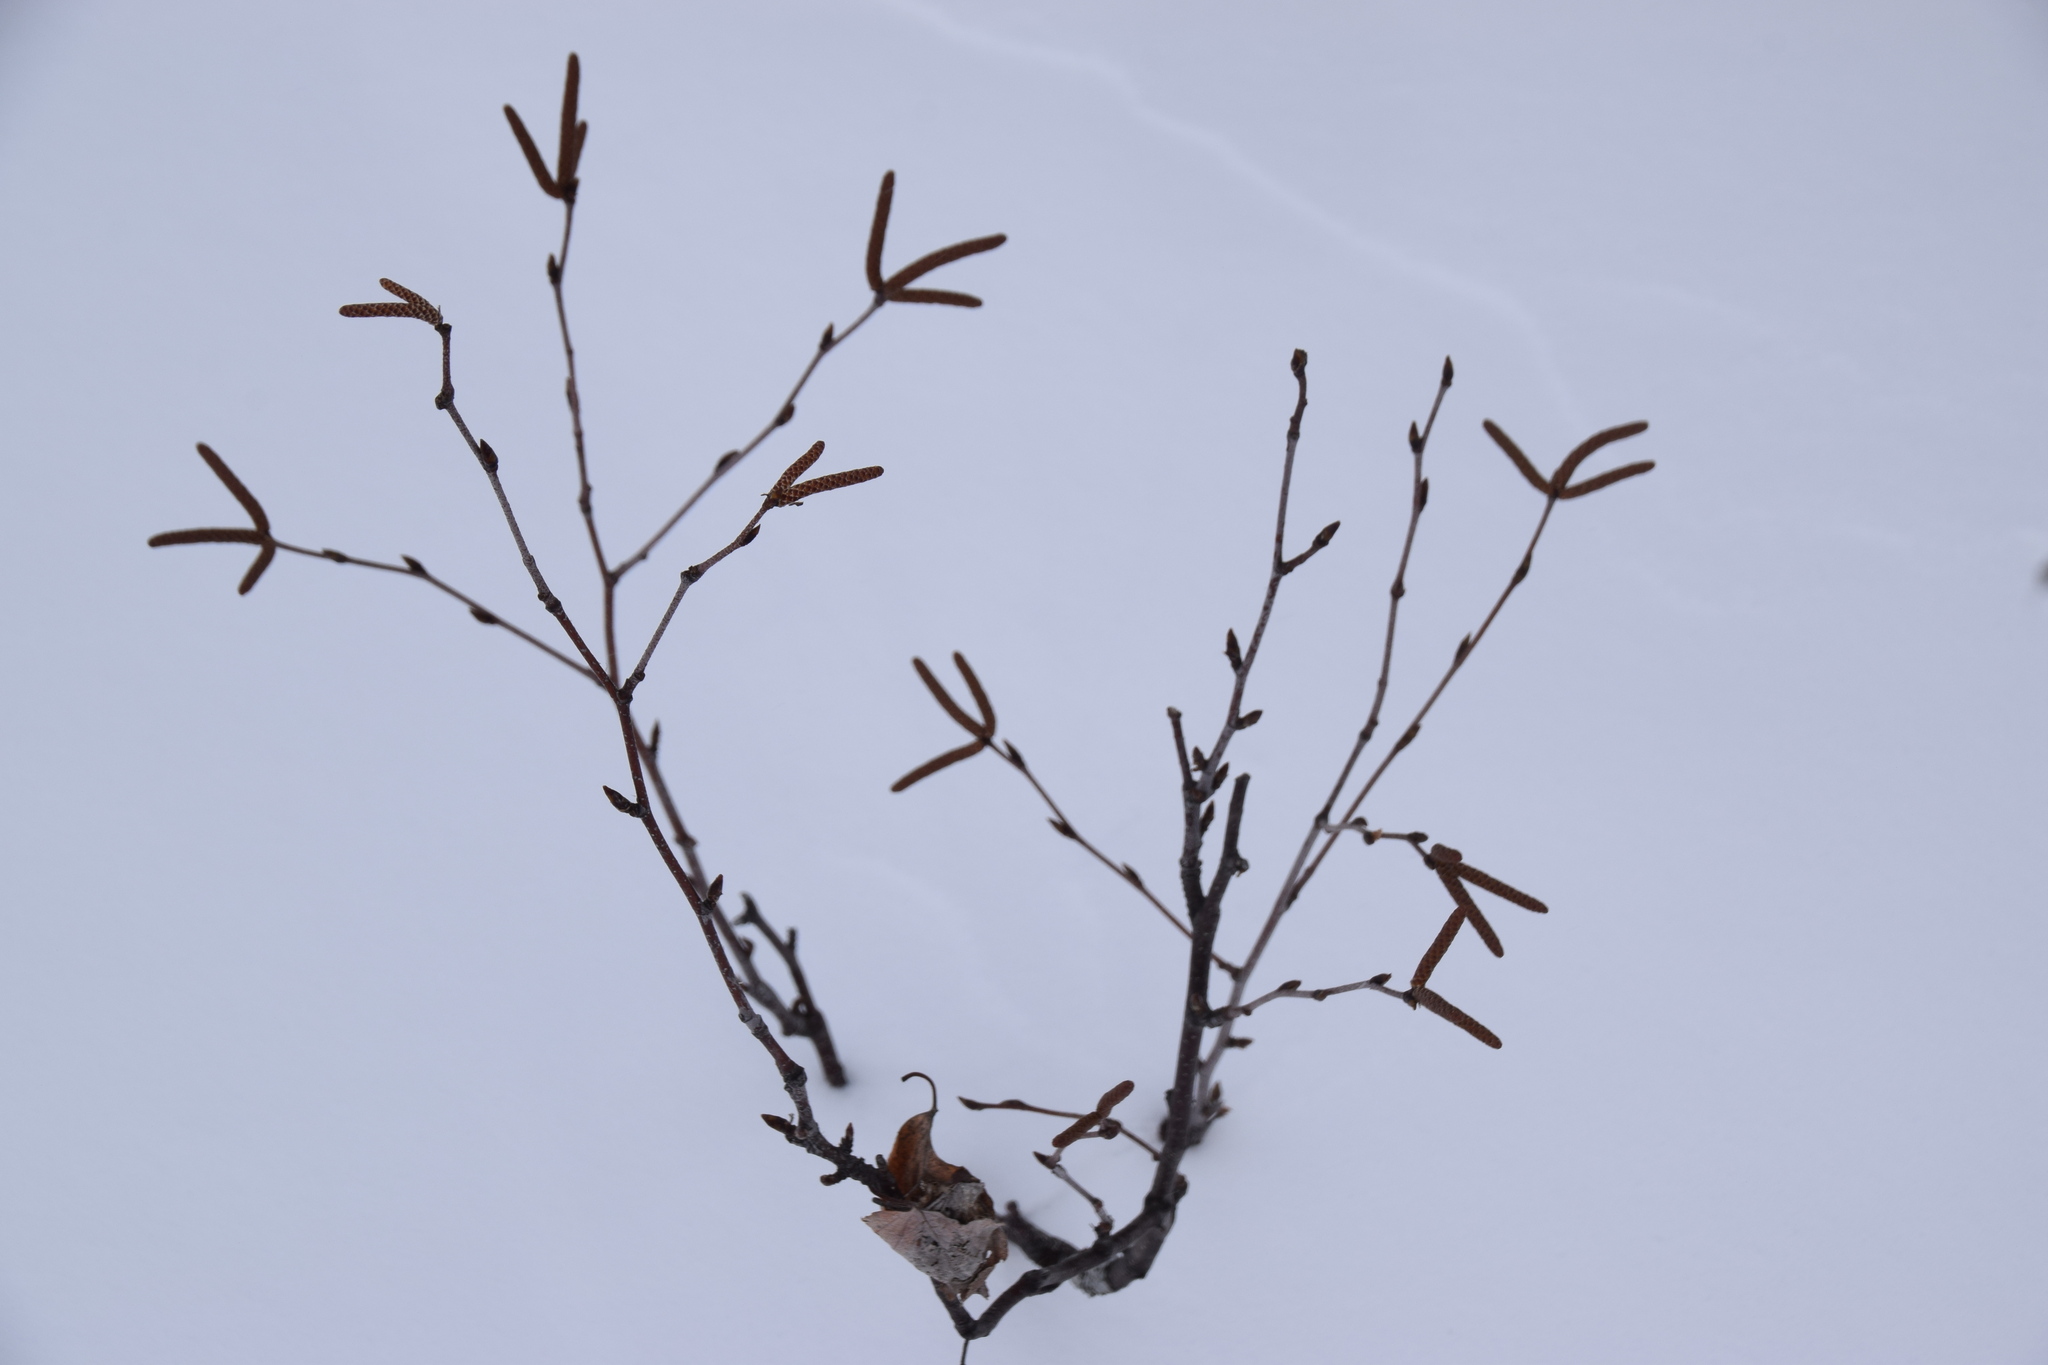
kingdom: Plantae
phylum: Tracheophyta
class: Magnoliopsida
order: Fagales
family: Betulaceae
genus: Alnus
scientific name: Alnus alnobetula
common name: Green alder
